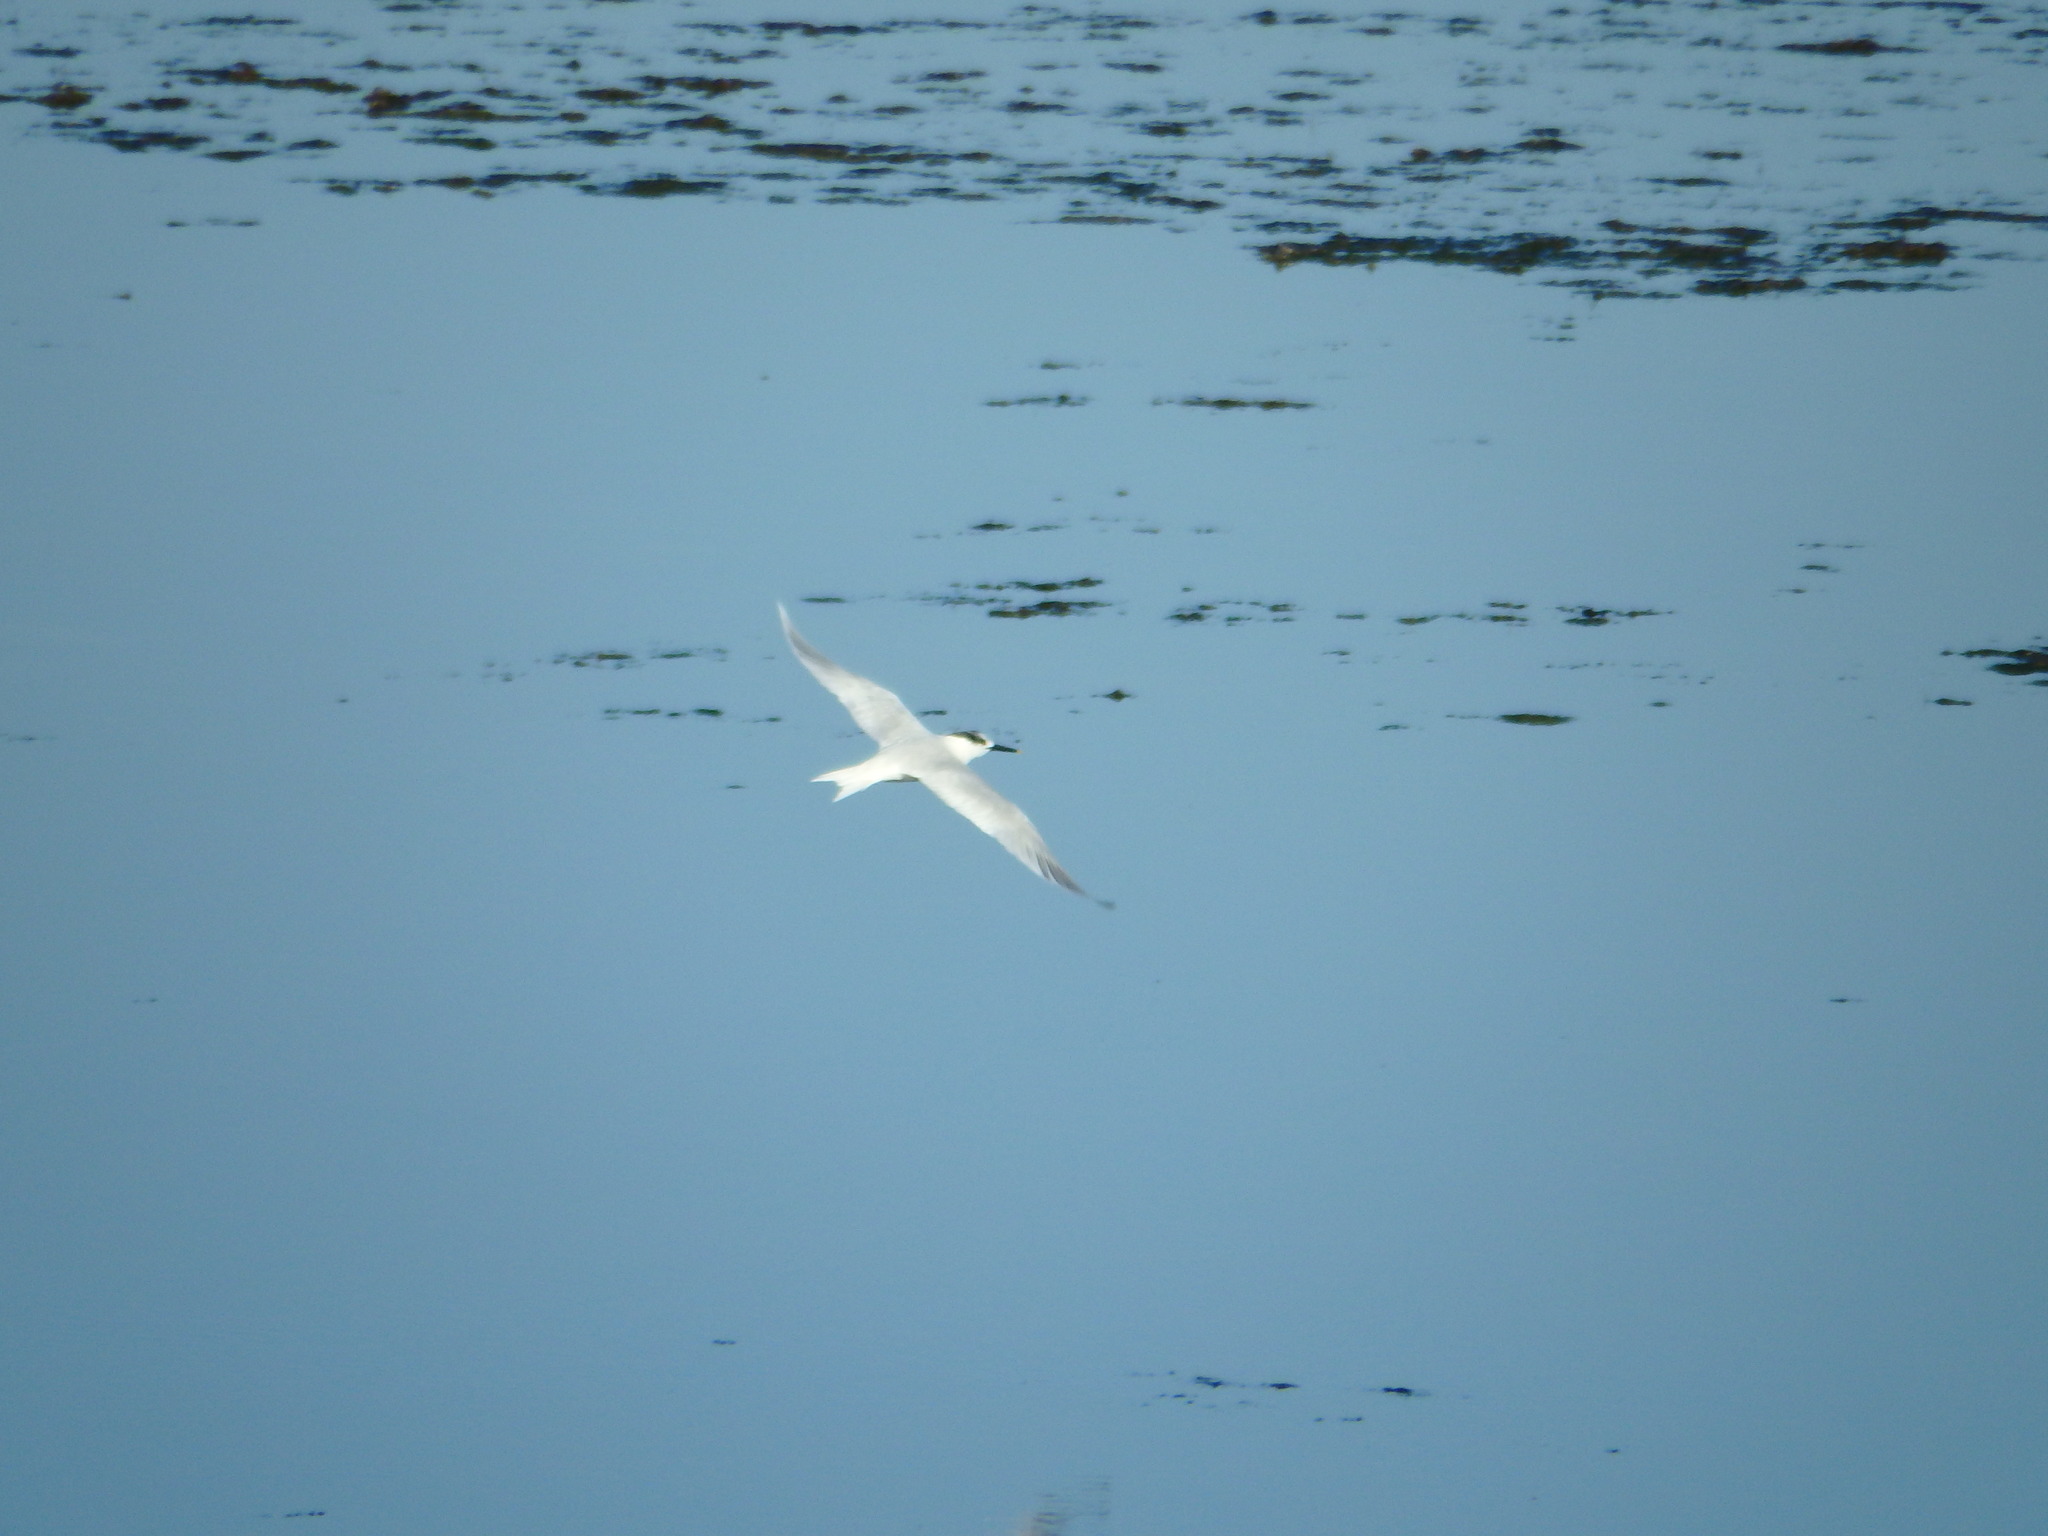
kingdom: Animalia
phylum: Chordata
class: Aves
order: Charadriiformes
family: Laridae
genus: Thalasseus
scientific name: Thalasseus sandvicensis
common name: Sandwich tern
